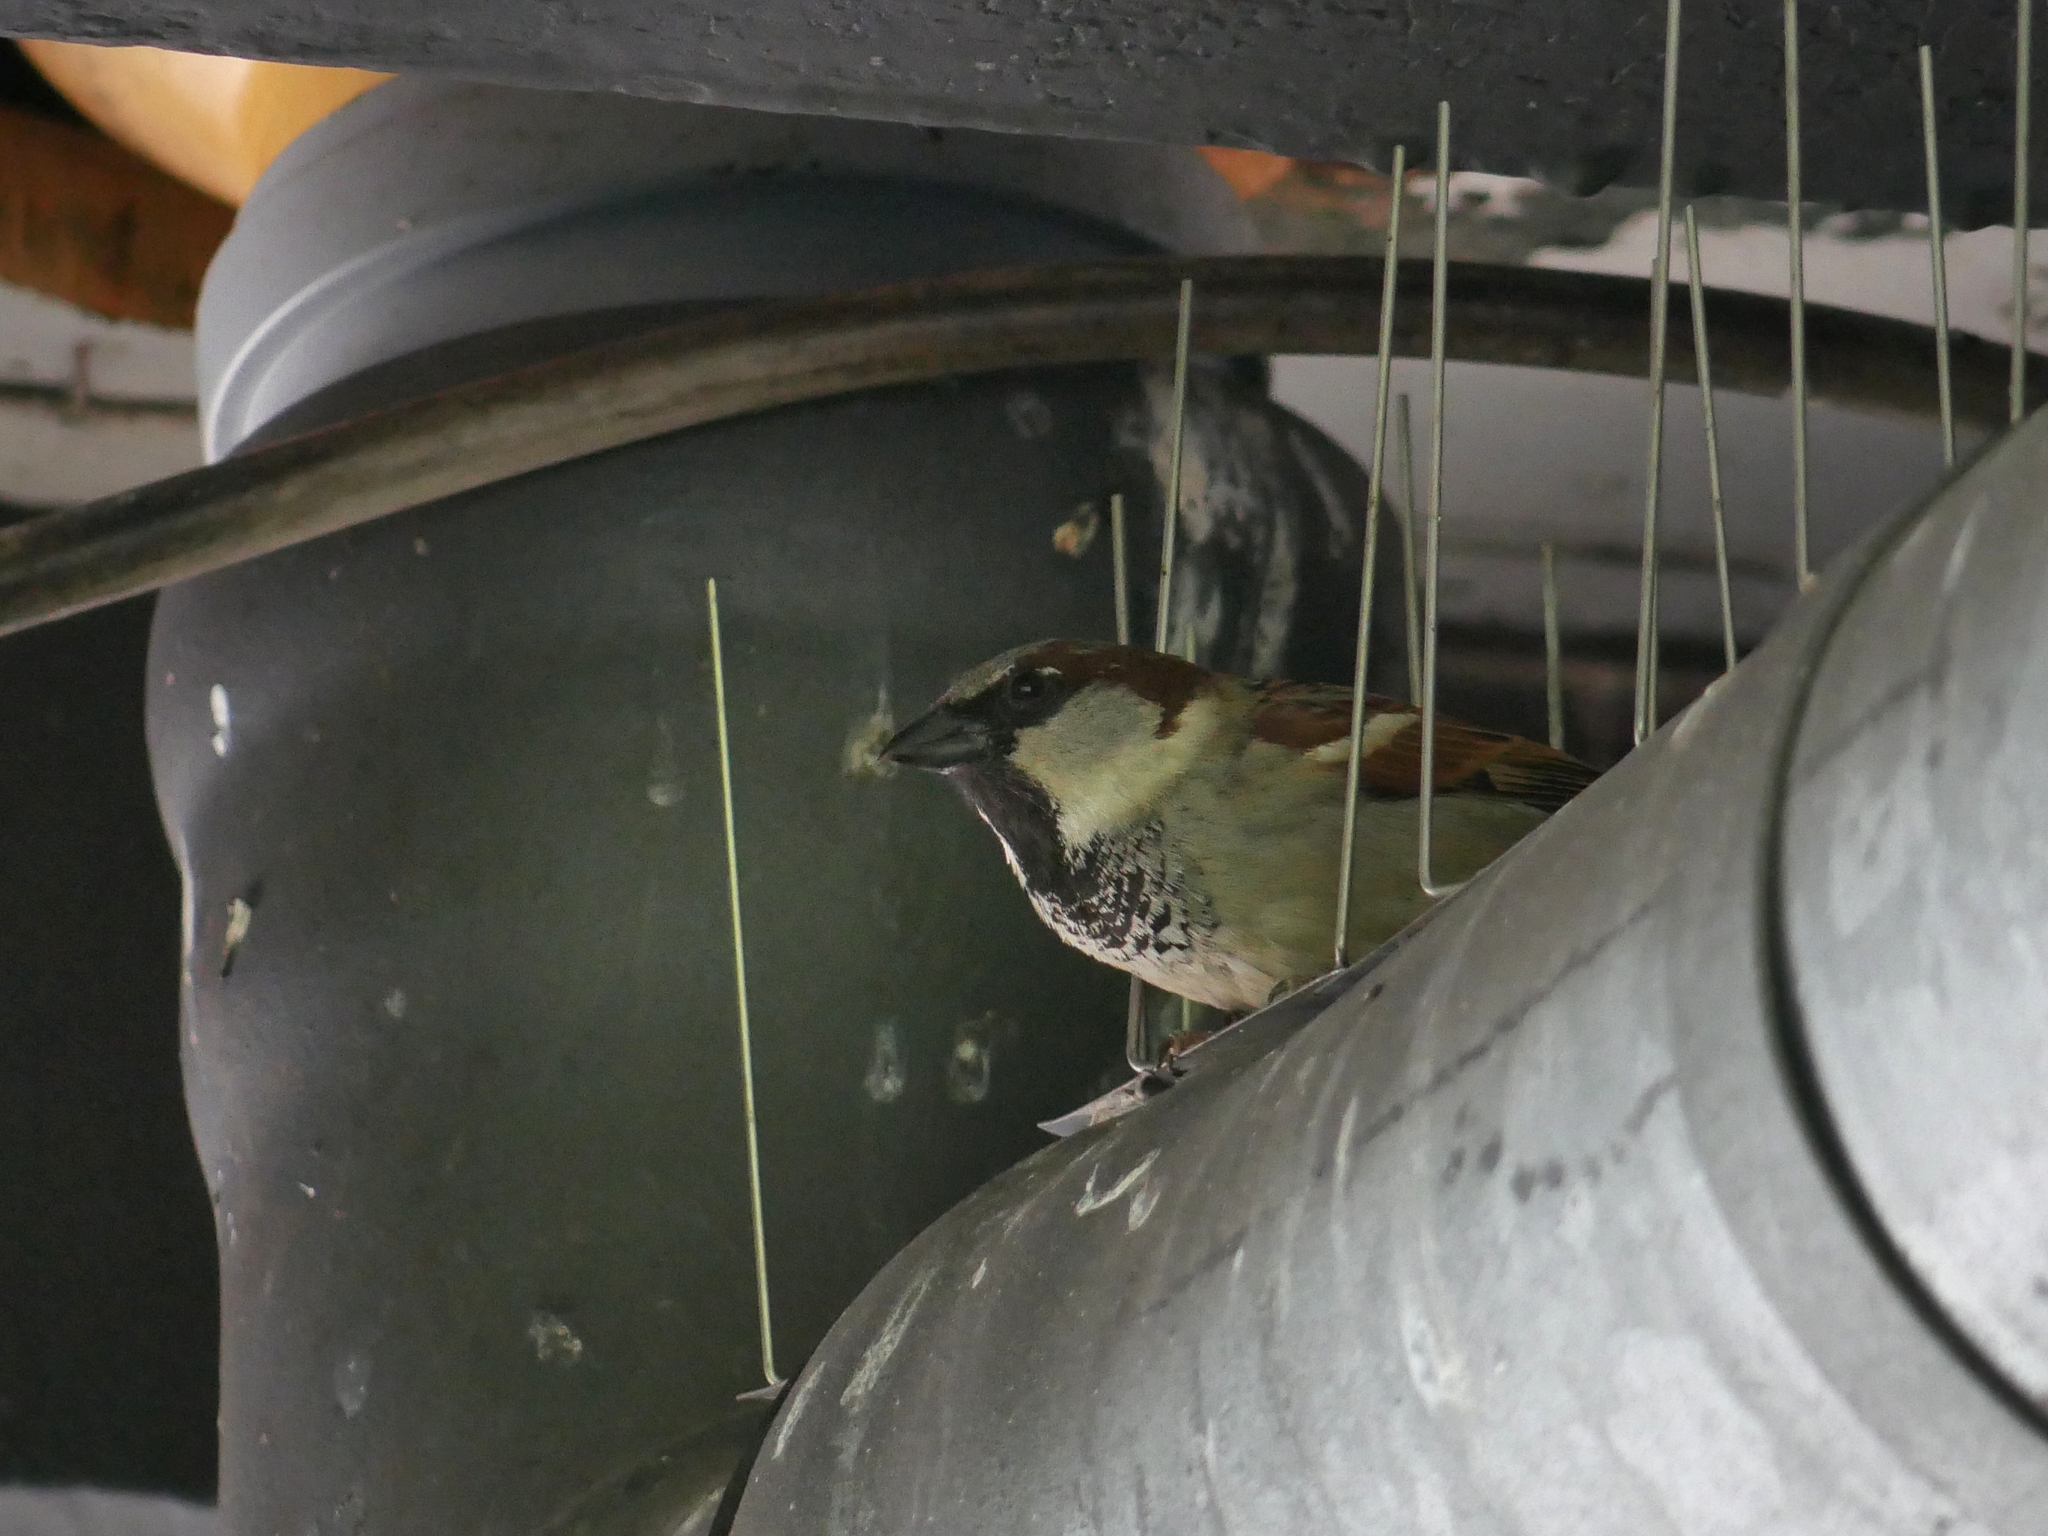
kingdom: Animalia
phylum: Chordata
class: Aves
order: Passeriformes
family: Passeridae
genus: Passer
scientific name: Passer domesticus
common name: House sparrow
